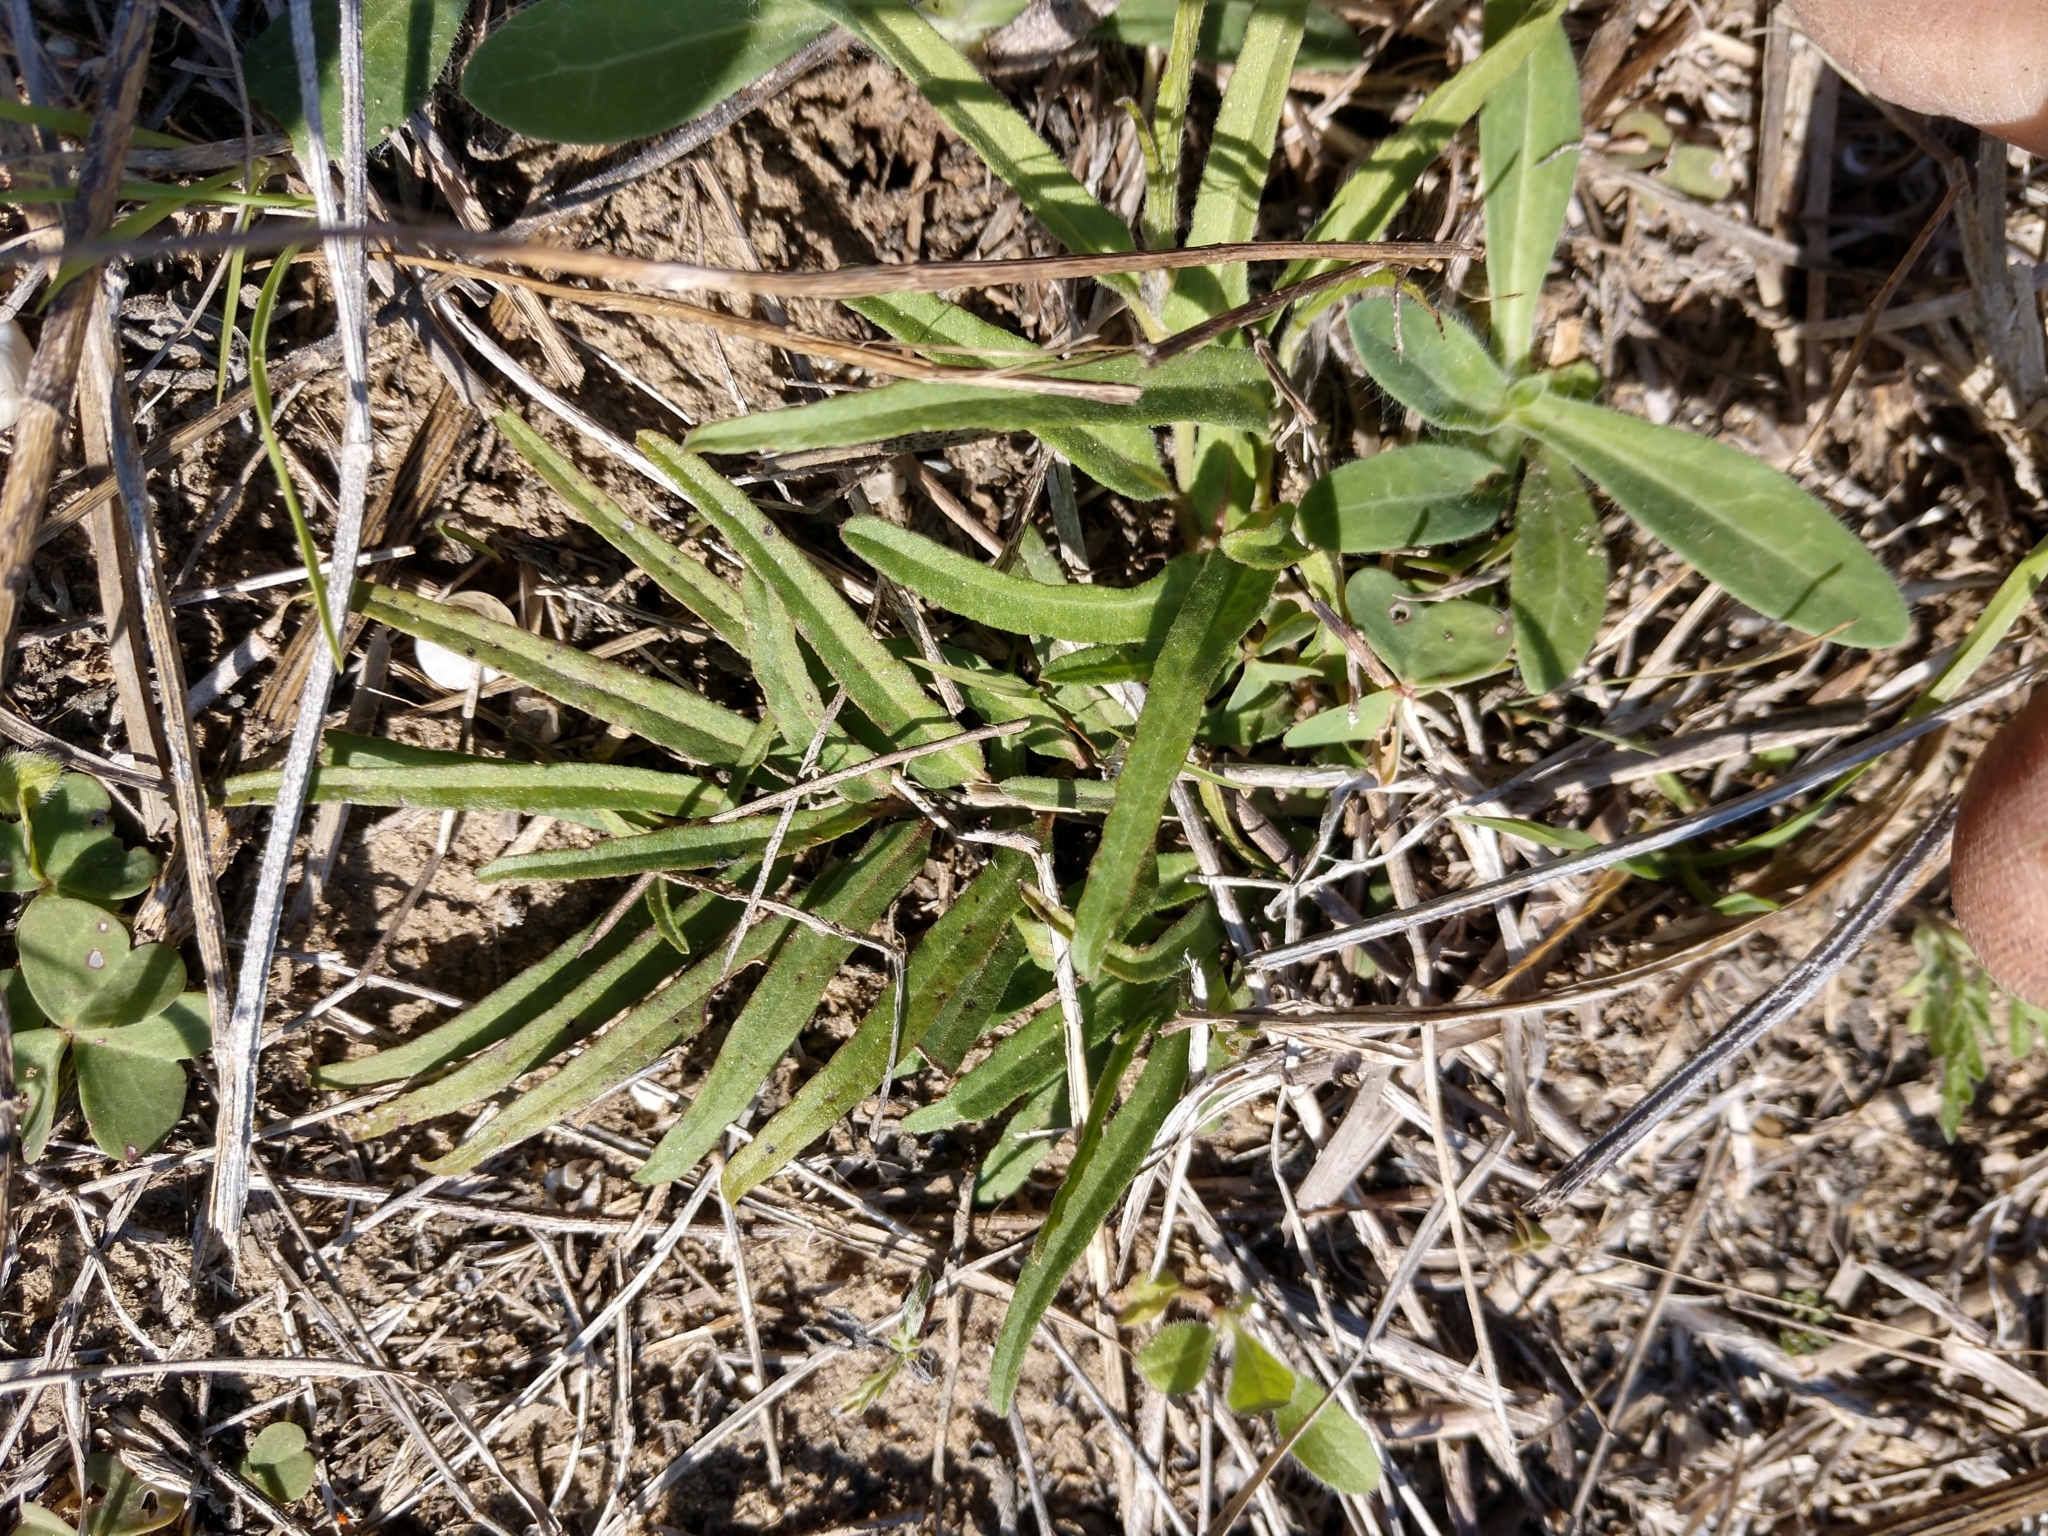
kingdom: Plantae
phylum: Tracheophyta
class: Magnoliopsida
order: Piperales
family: Aristolochiaceae
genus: Aristolochia
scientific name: Aristolochia erecta
